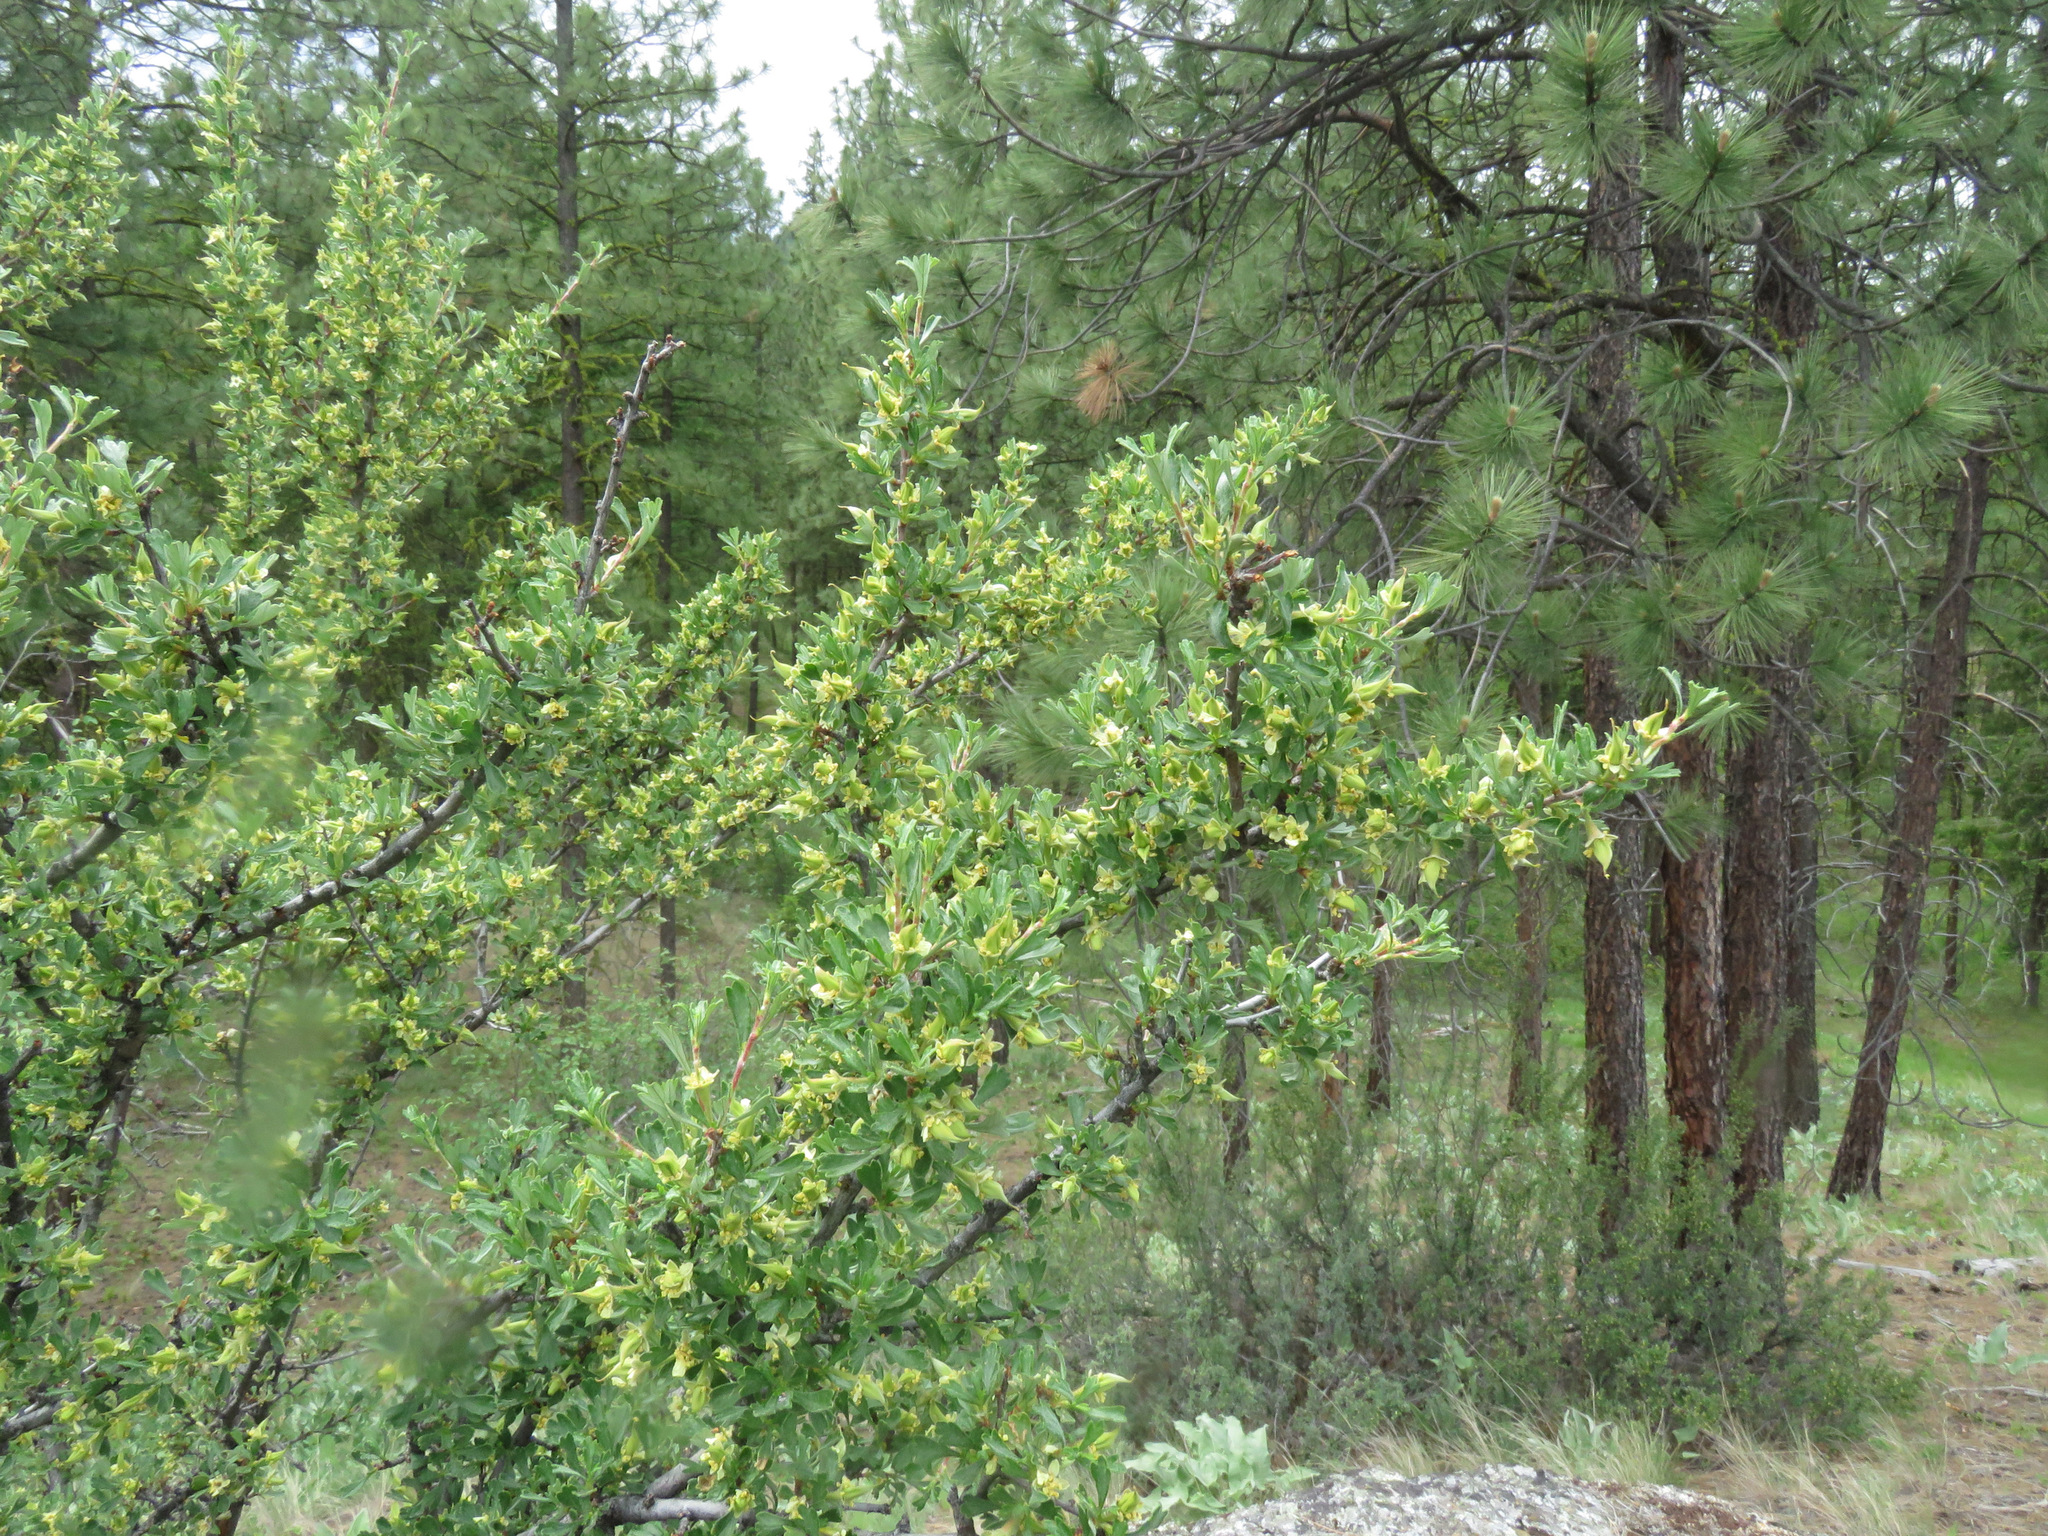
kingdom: Plantae
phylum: Tracheophyta
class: Magnoliopsida
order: Rosales
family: Rosaceae
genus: Purshia
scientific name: Purshia tridentata
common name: Antelope bitterbrush
